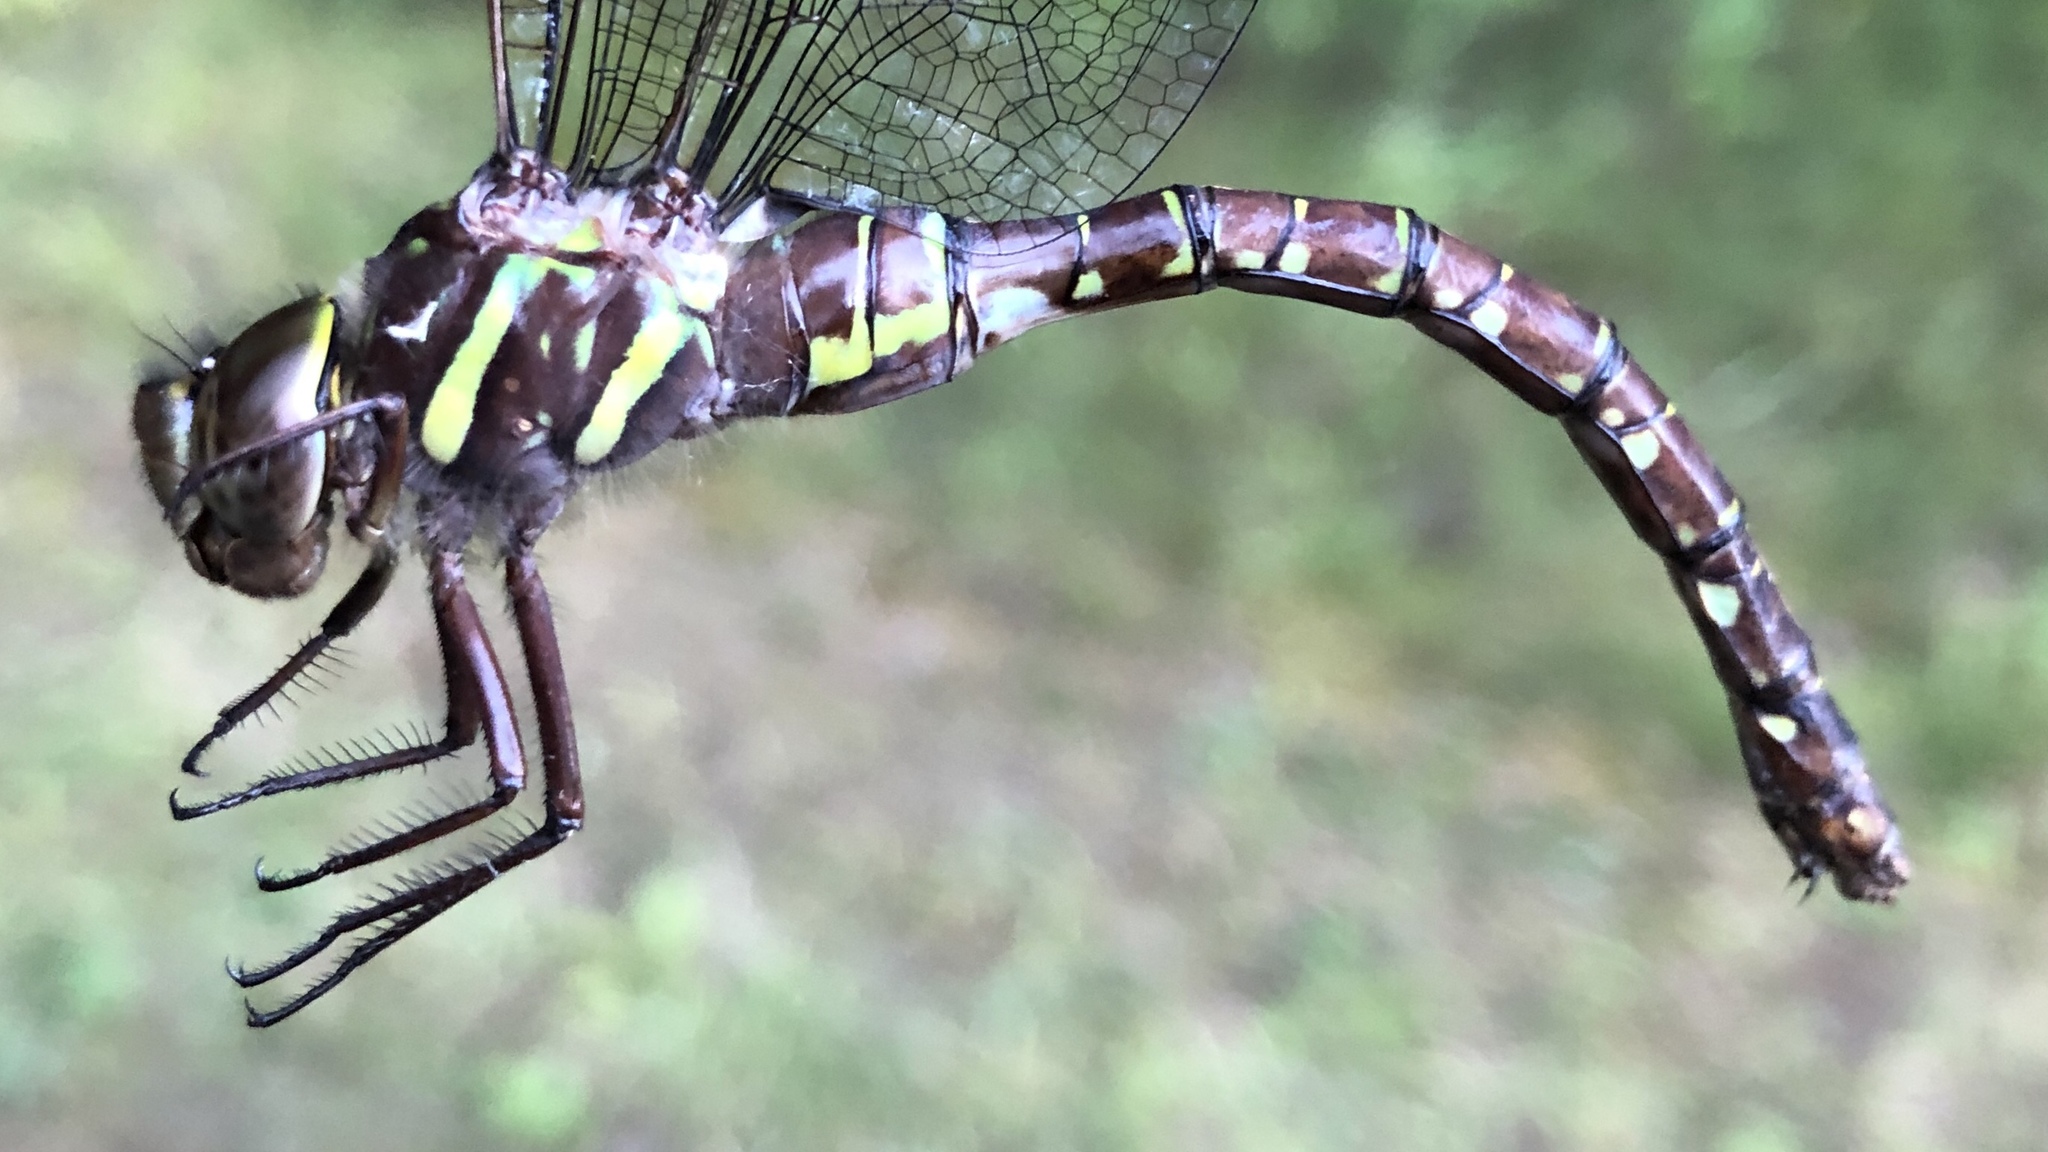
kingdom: Animalia
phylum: Arthropoda
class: Insecta
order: Odonata
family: Aeshnidae
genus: Aeshna
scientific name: Aeshna umbrosa
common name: Shadow darner
